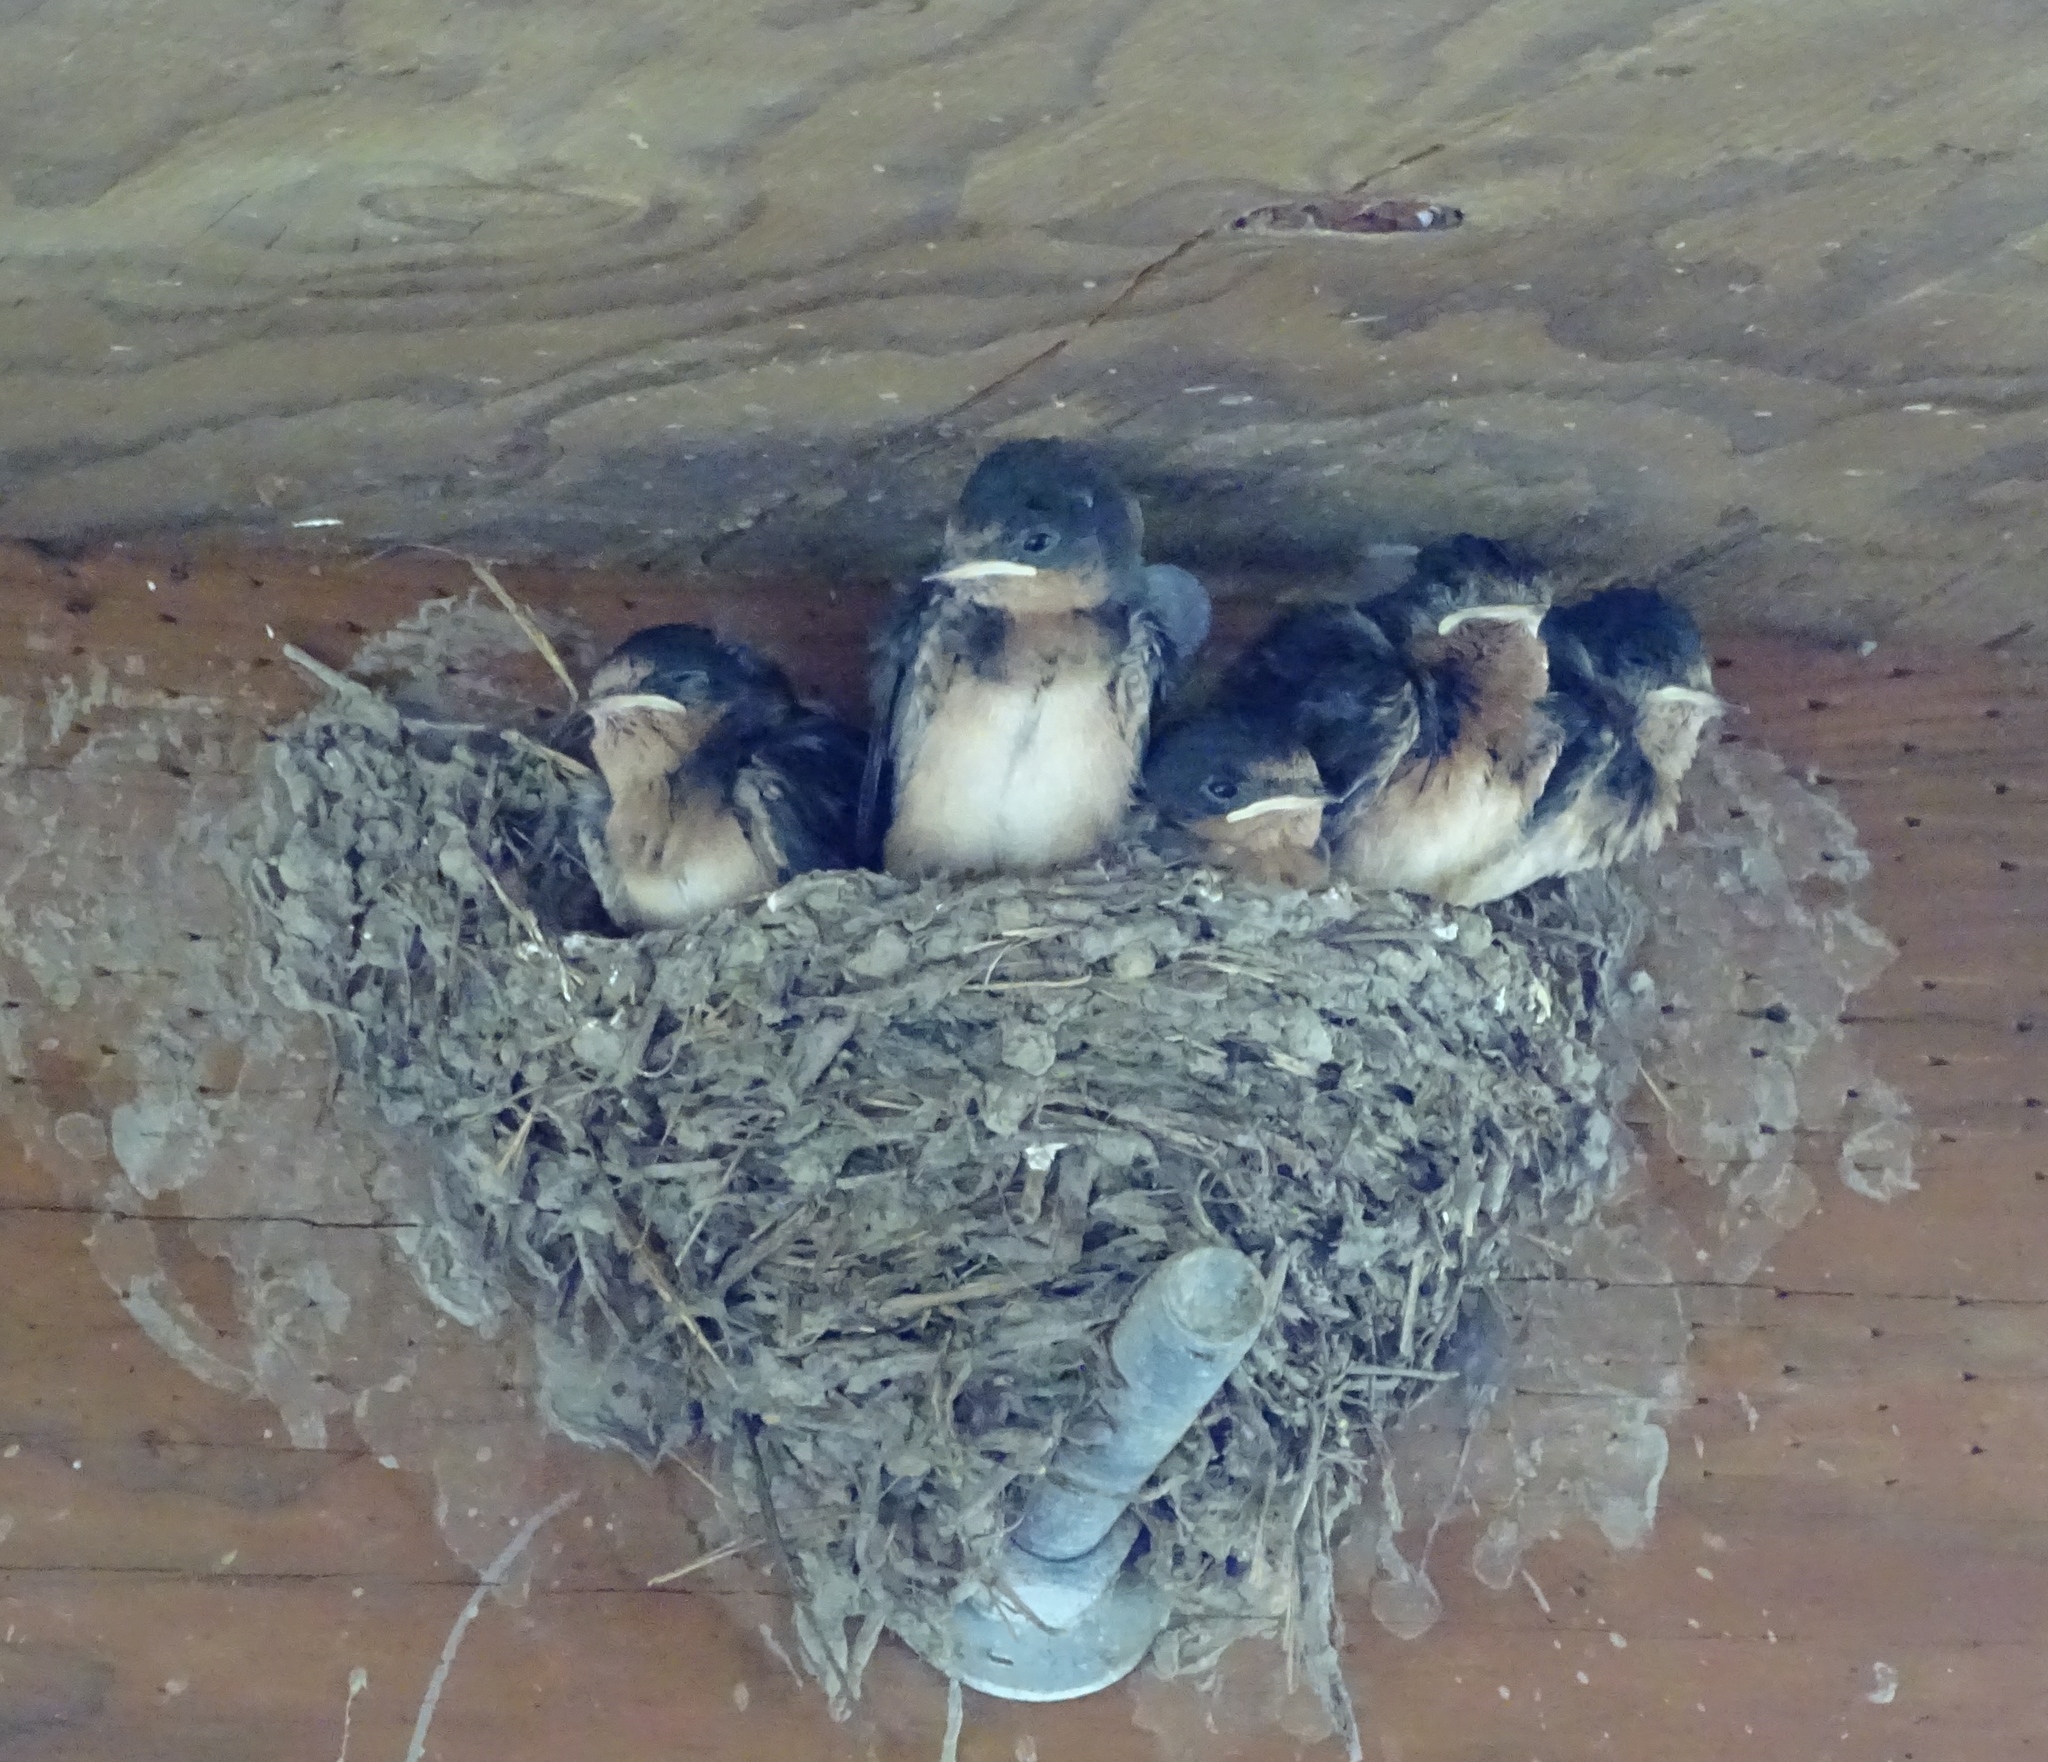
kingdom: Animalia
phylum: Chordata
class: Aves
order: Passeriformes
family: Hirundinidae
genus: Hirundo
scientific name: Hirundo rustica
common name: Barn swallow
